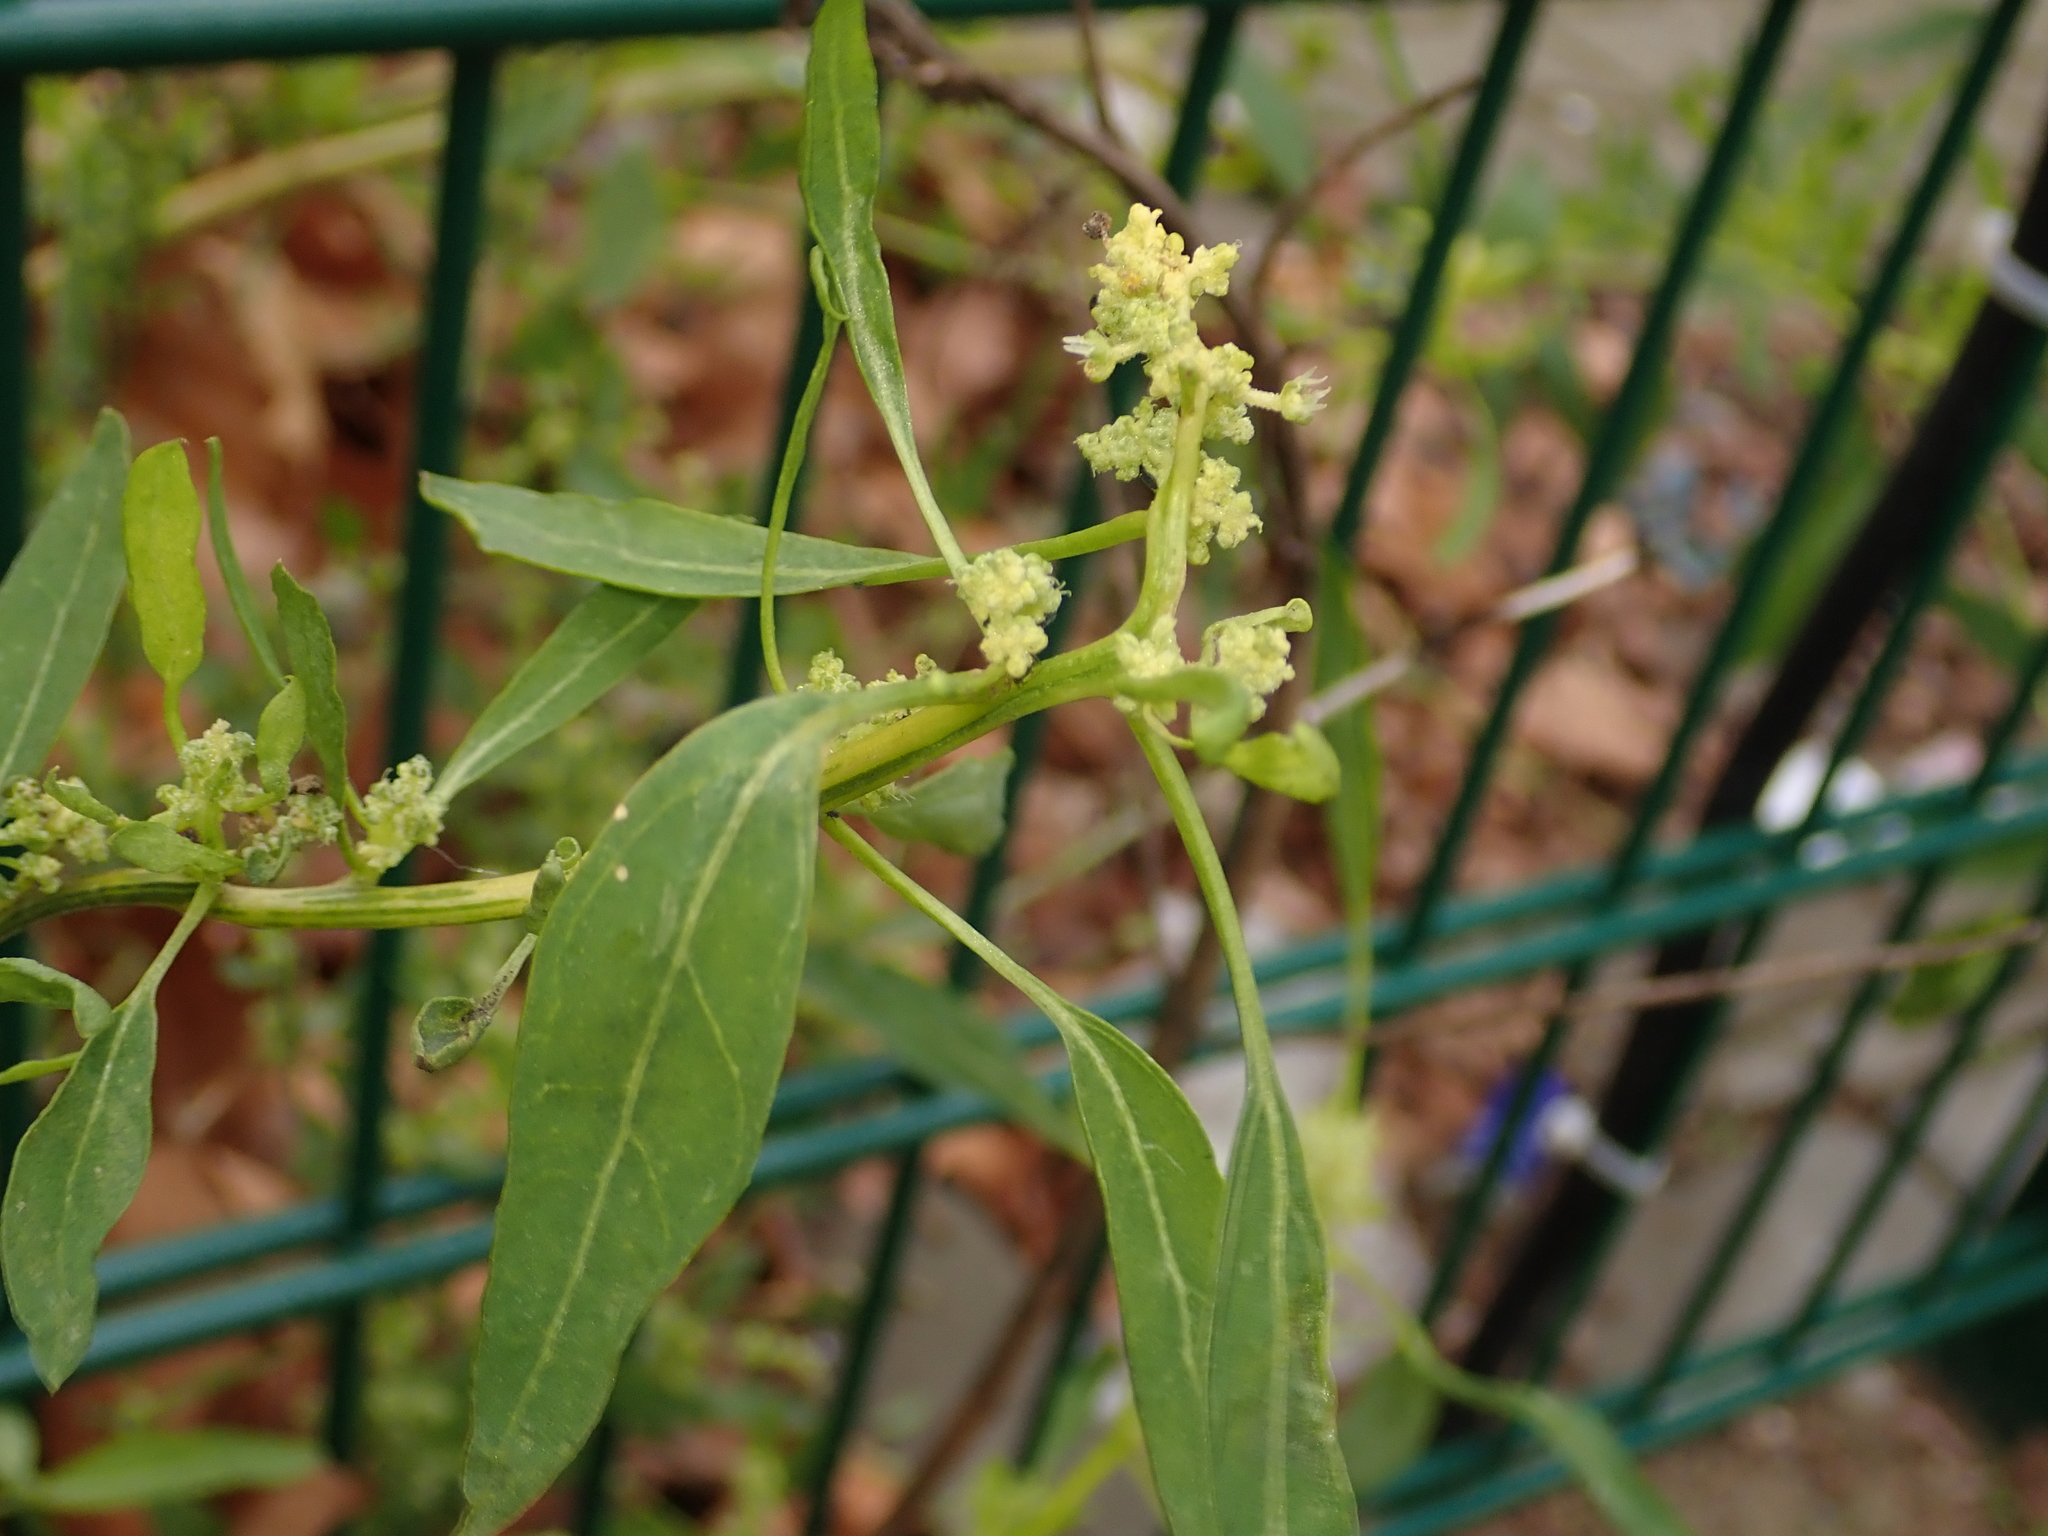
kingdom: Plantae
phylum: Tracheophyta
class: Magnoliopsida
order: Caryophyllales
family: Amaranthaceae
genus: Chenopodium
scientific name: Chenopodium album
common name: Fat-hen
